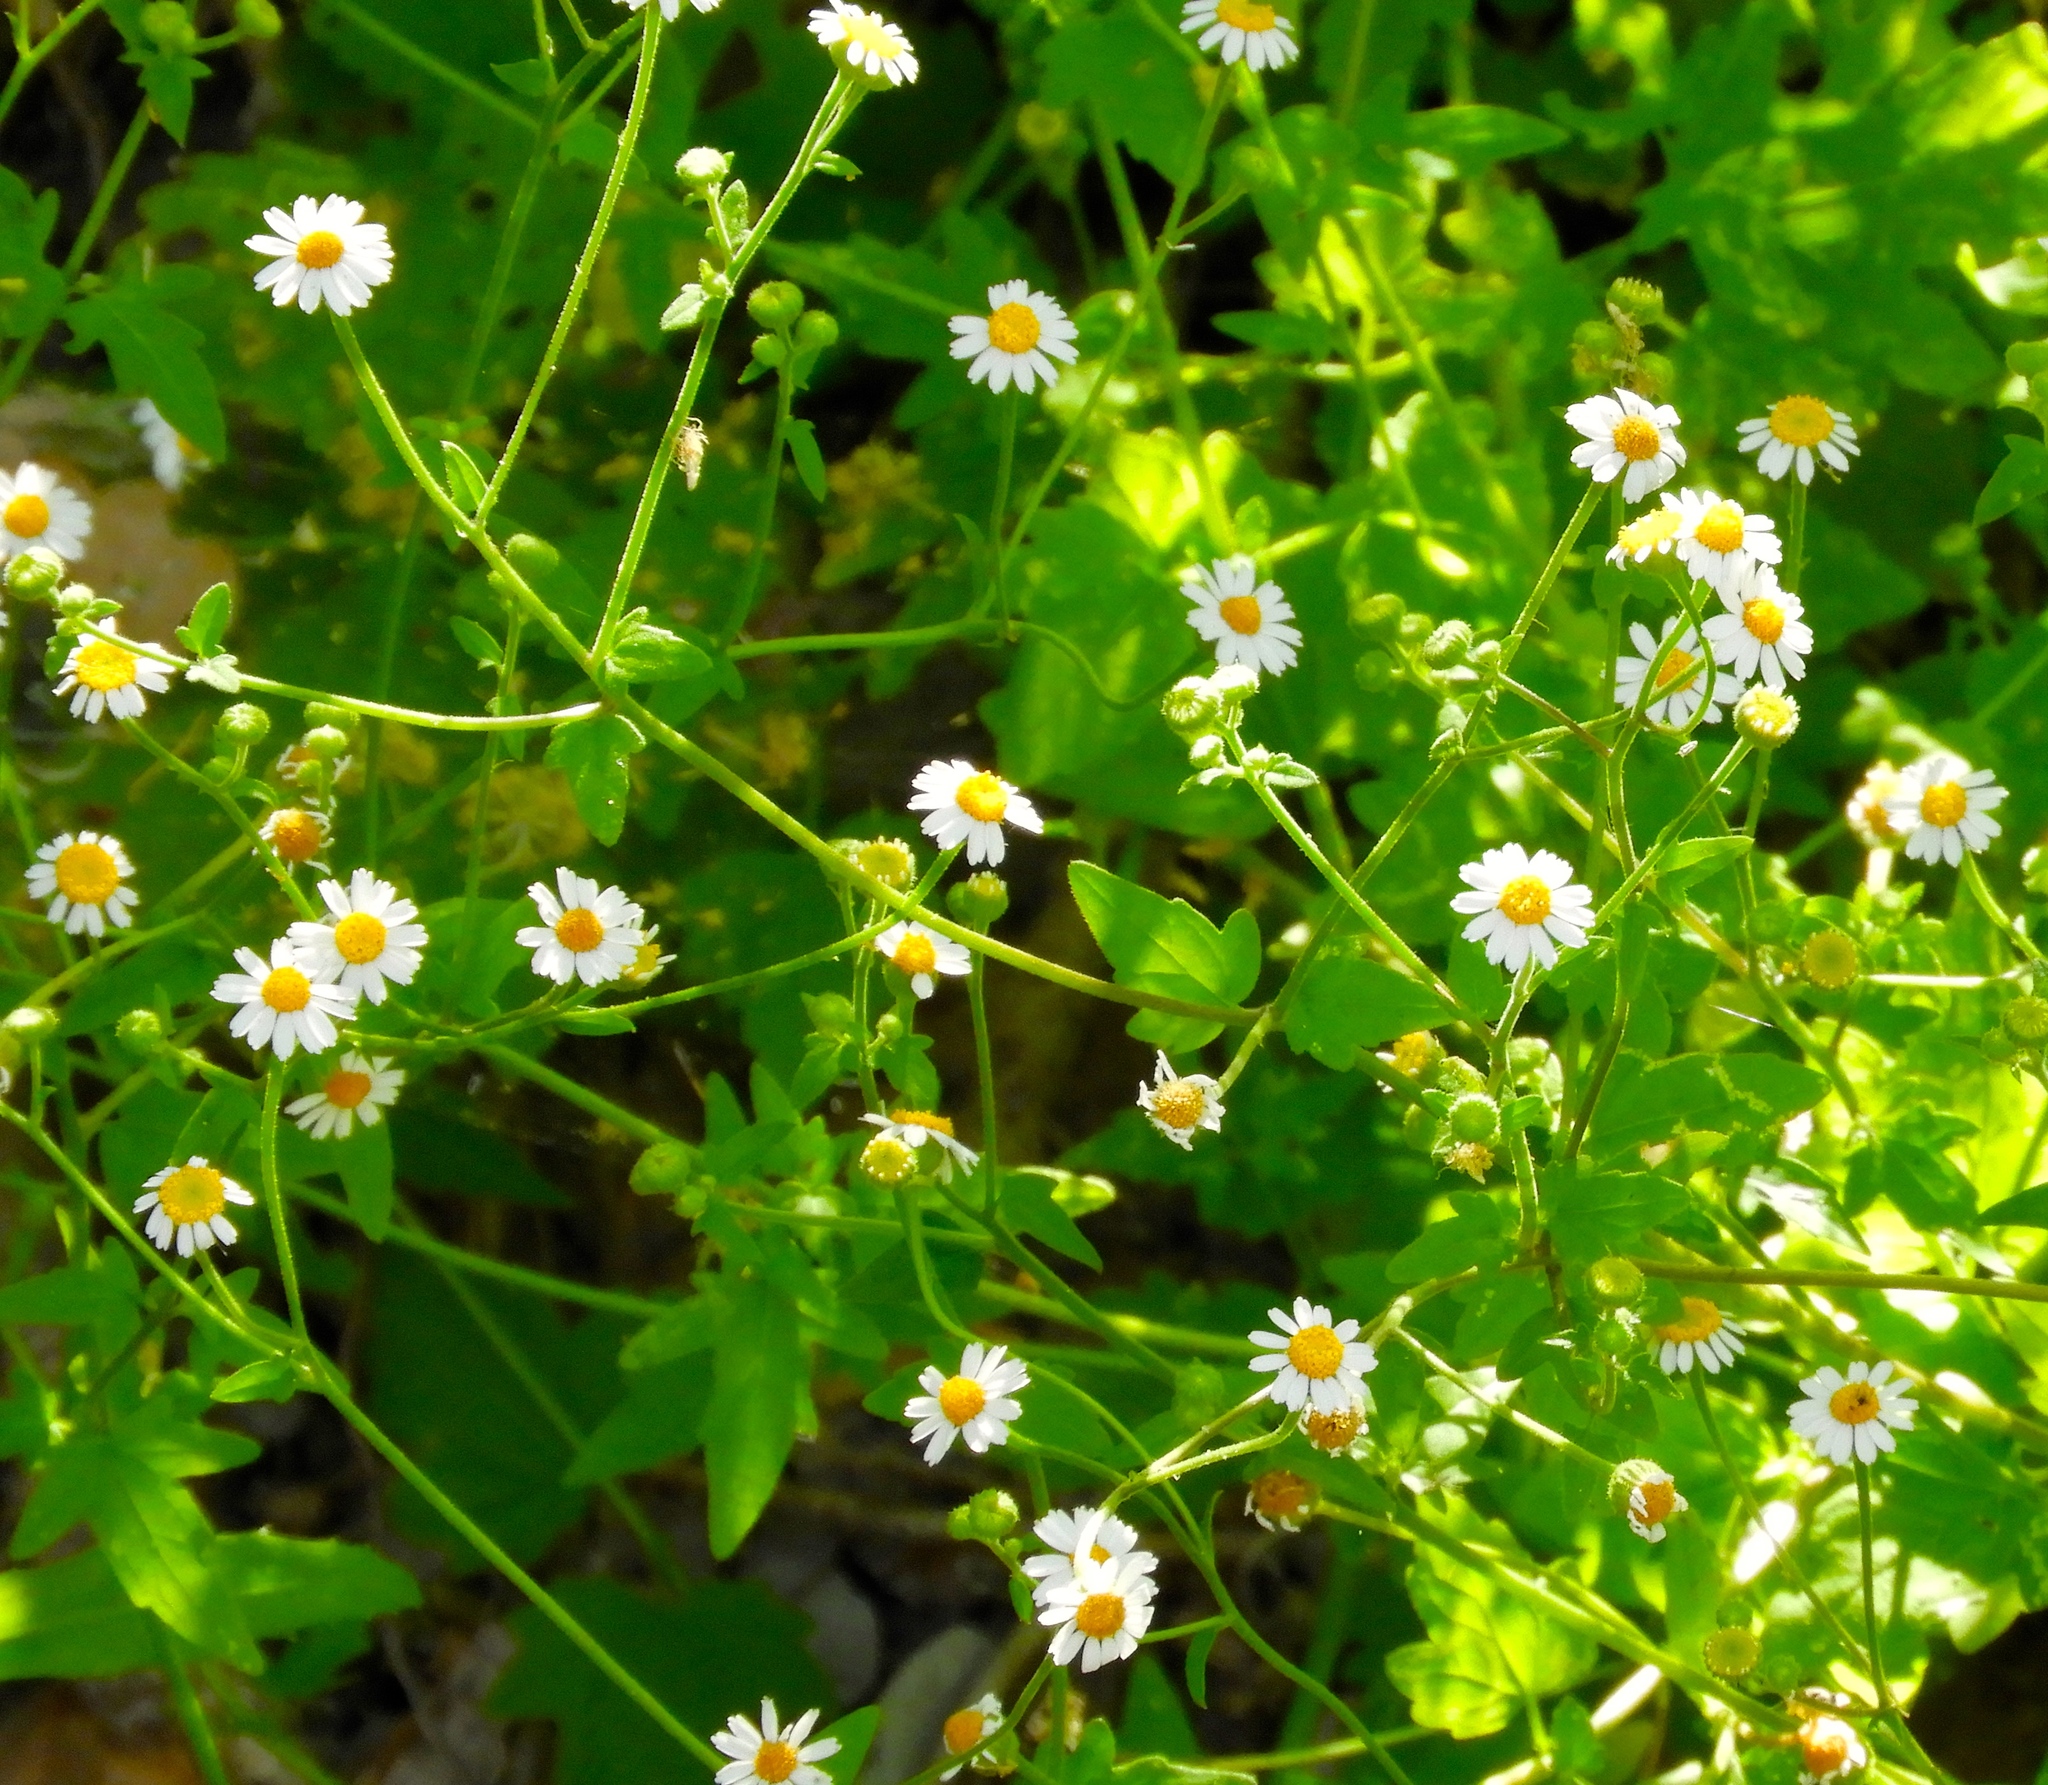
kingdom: Plantae
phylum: Tracheophyta
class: Magnoliopsida
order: Asterales
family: Asteraceae
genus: Galinsogeopsis
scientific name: Galinsogeopsis spilanthoides
